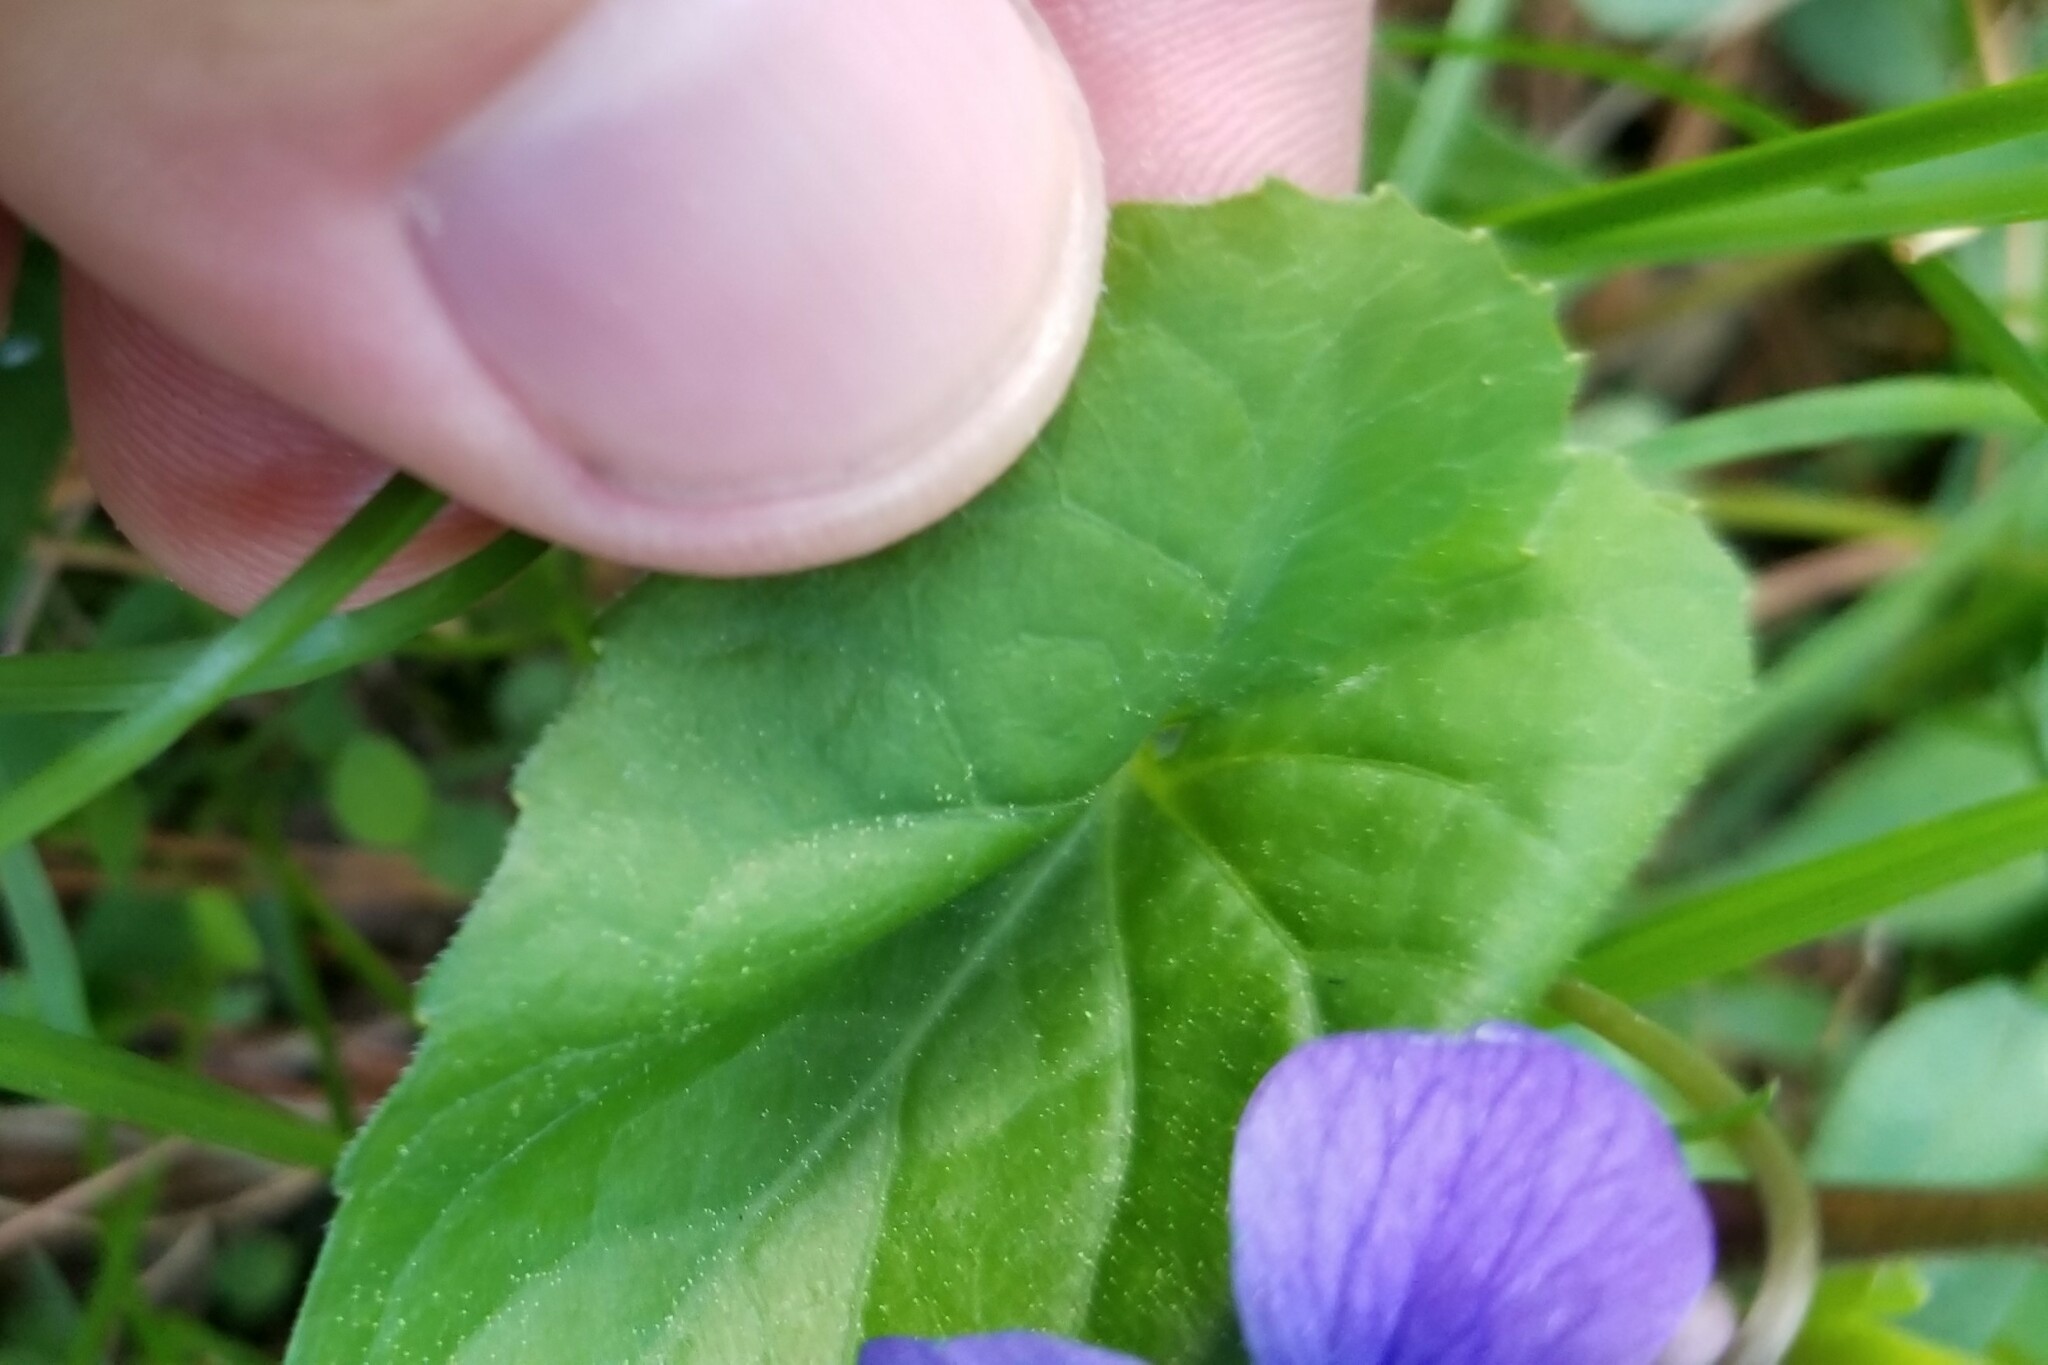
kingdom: Plantae
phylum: Tracheophyta
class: Magnoliopsida
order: Malpighiales
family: Violaceae
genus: Viola
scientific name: Viola sororia
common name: Dooryard violet
